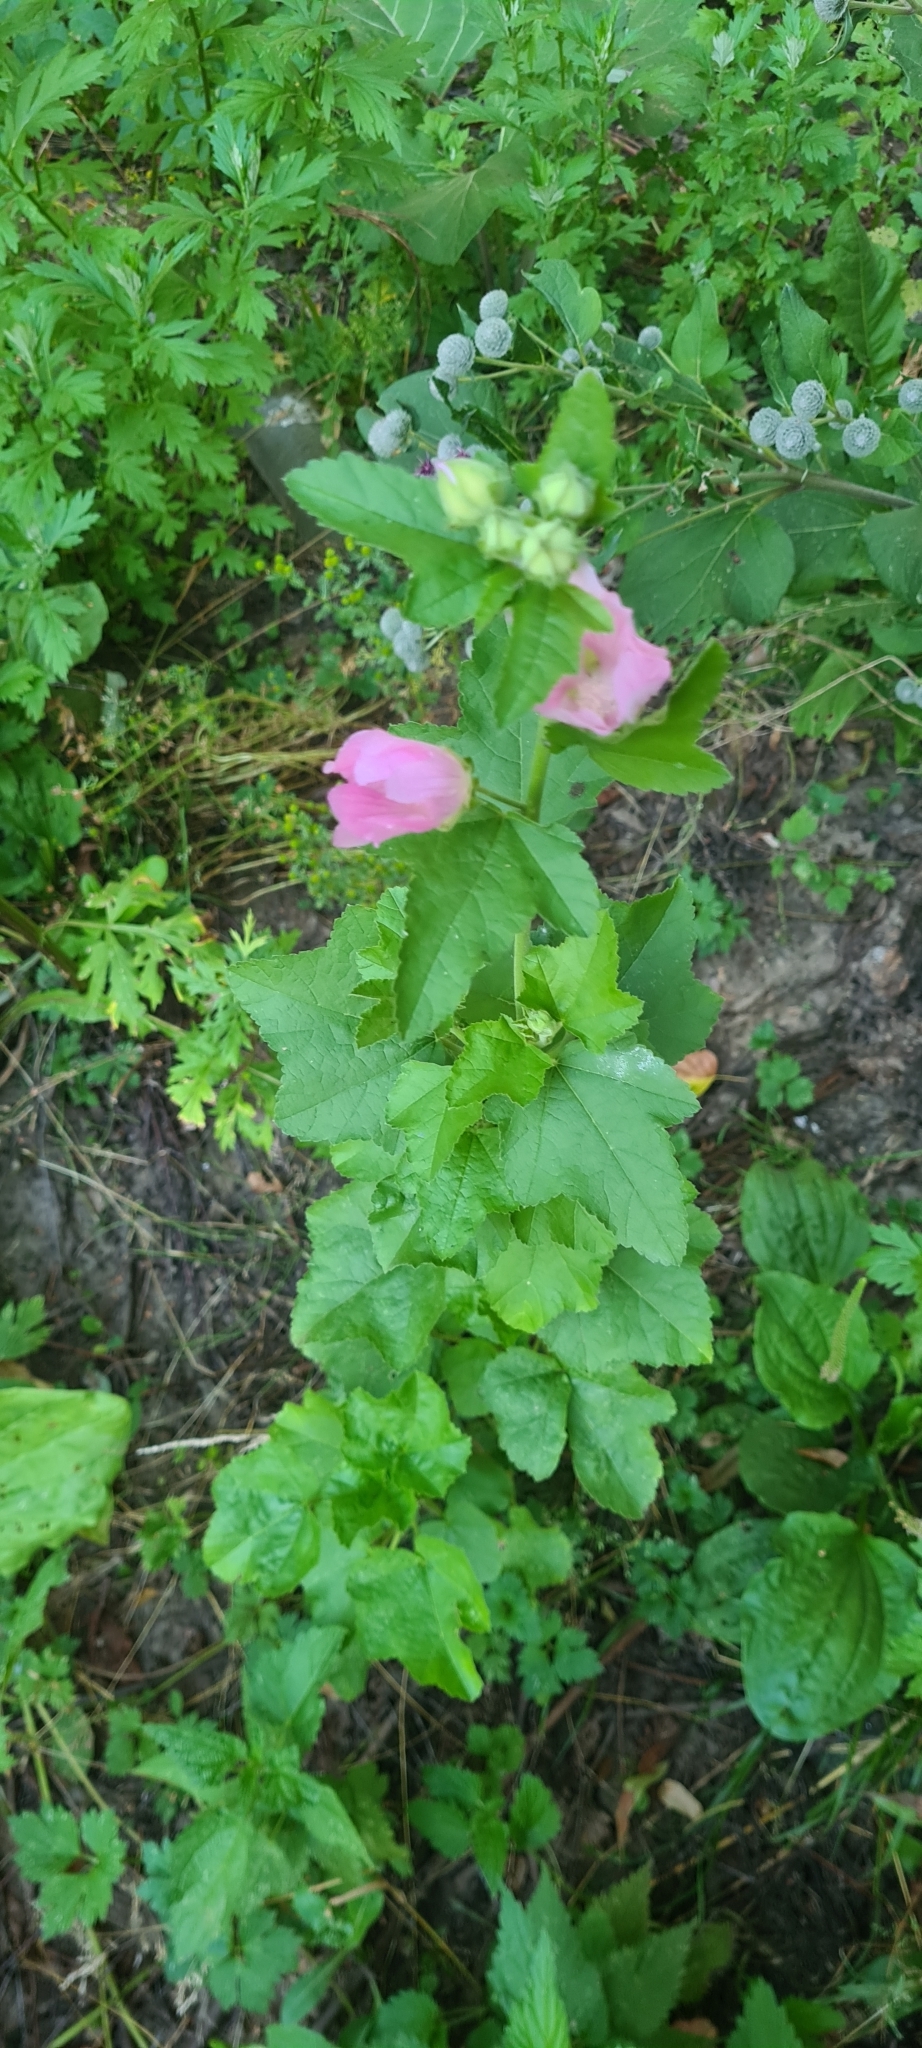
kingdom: Plantae
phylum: Tracheophyta
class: Magnoliopsida
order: Malvales
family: Malvaceae
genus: Malva
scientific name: Malva thuringiaca
